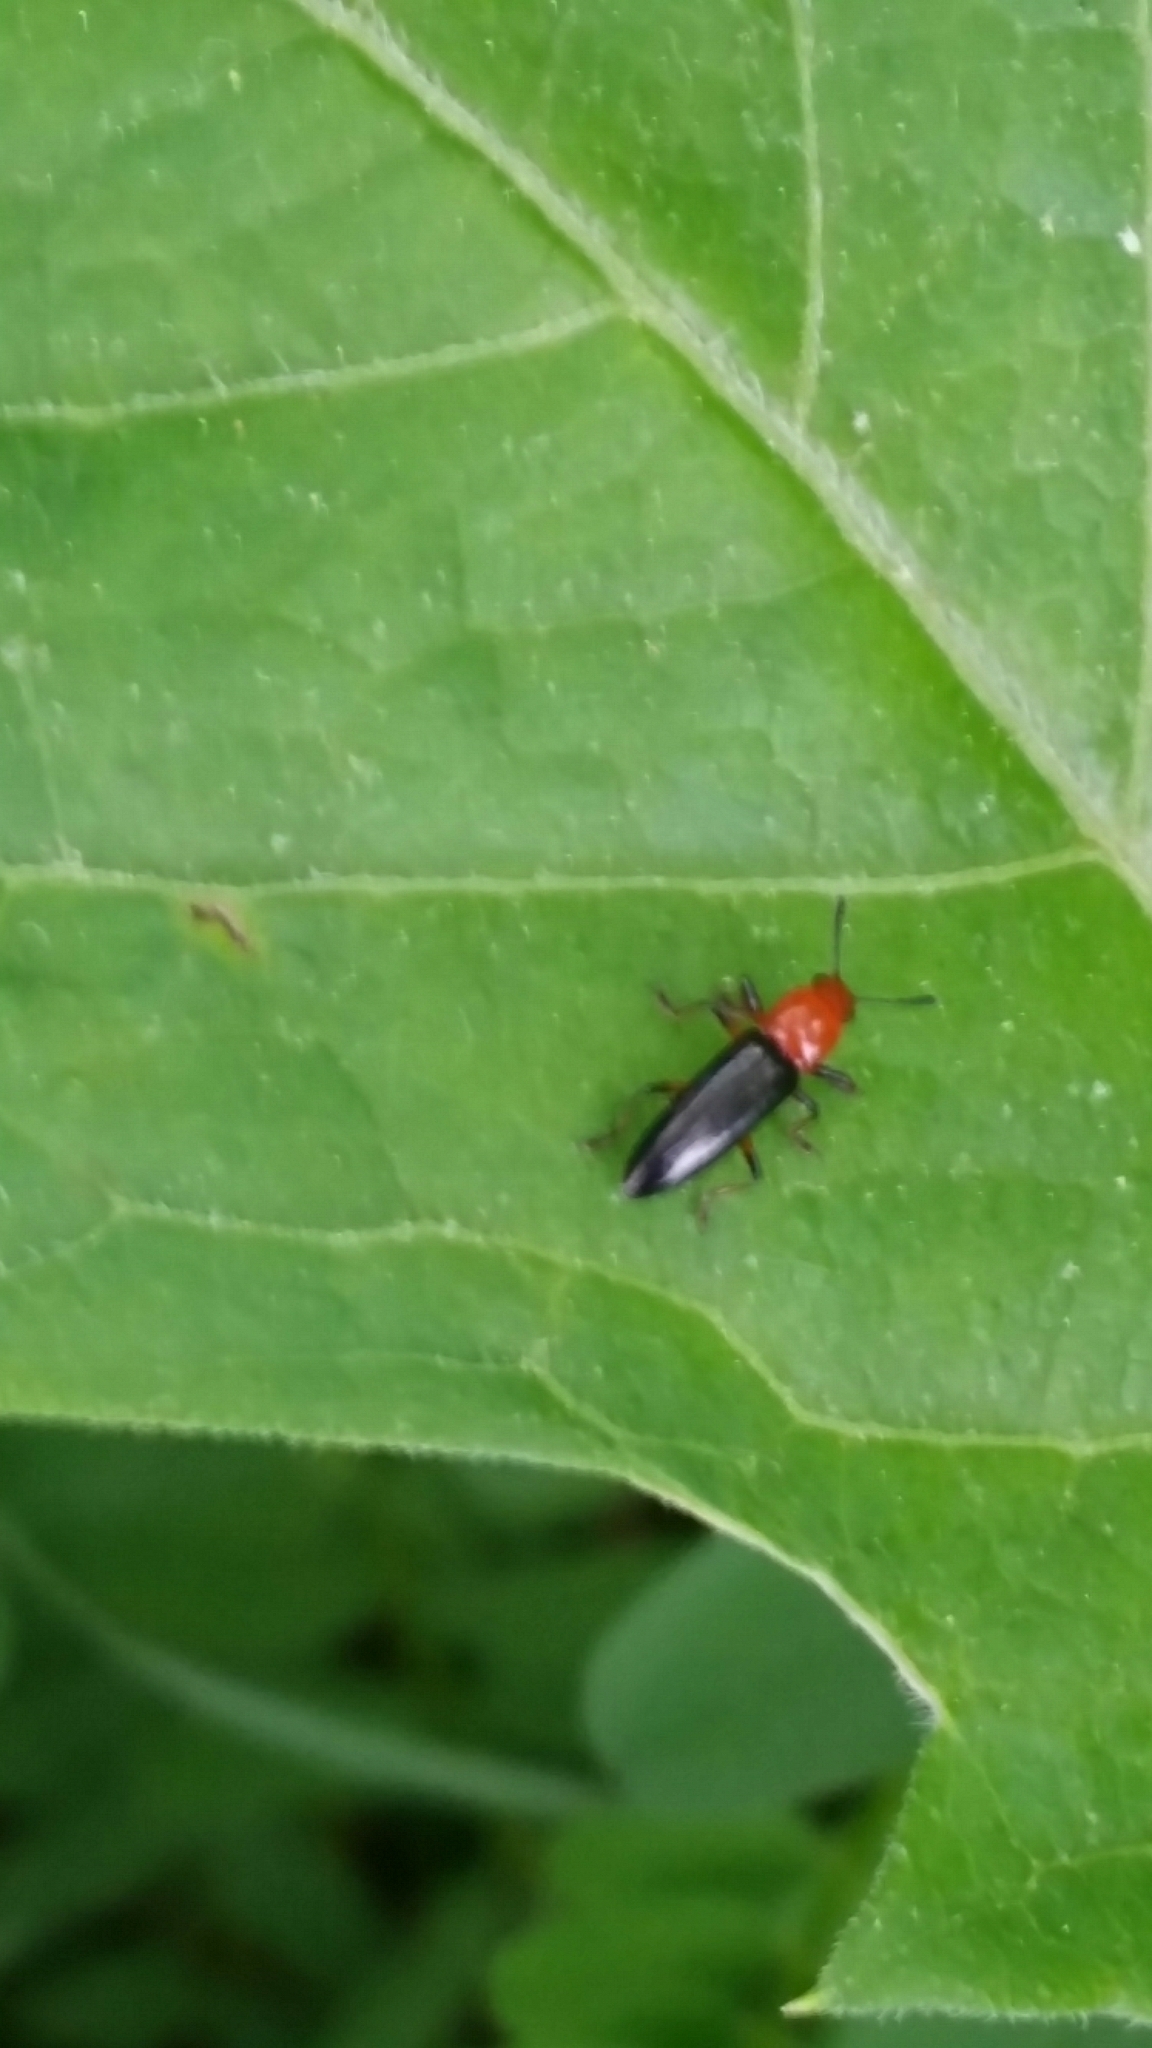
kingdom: Animalia
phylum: Arthropoda
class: Insecta
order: Coleoptera
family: Erotylidae
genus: Languria
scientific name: Languria mozardi
